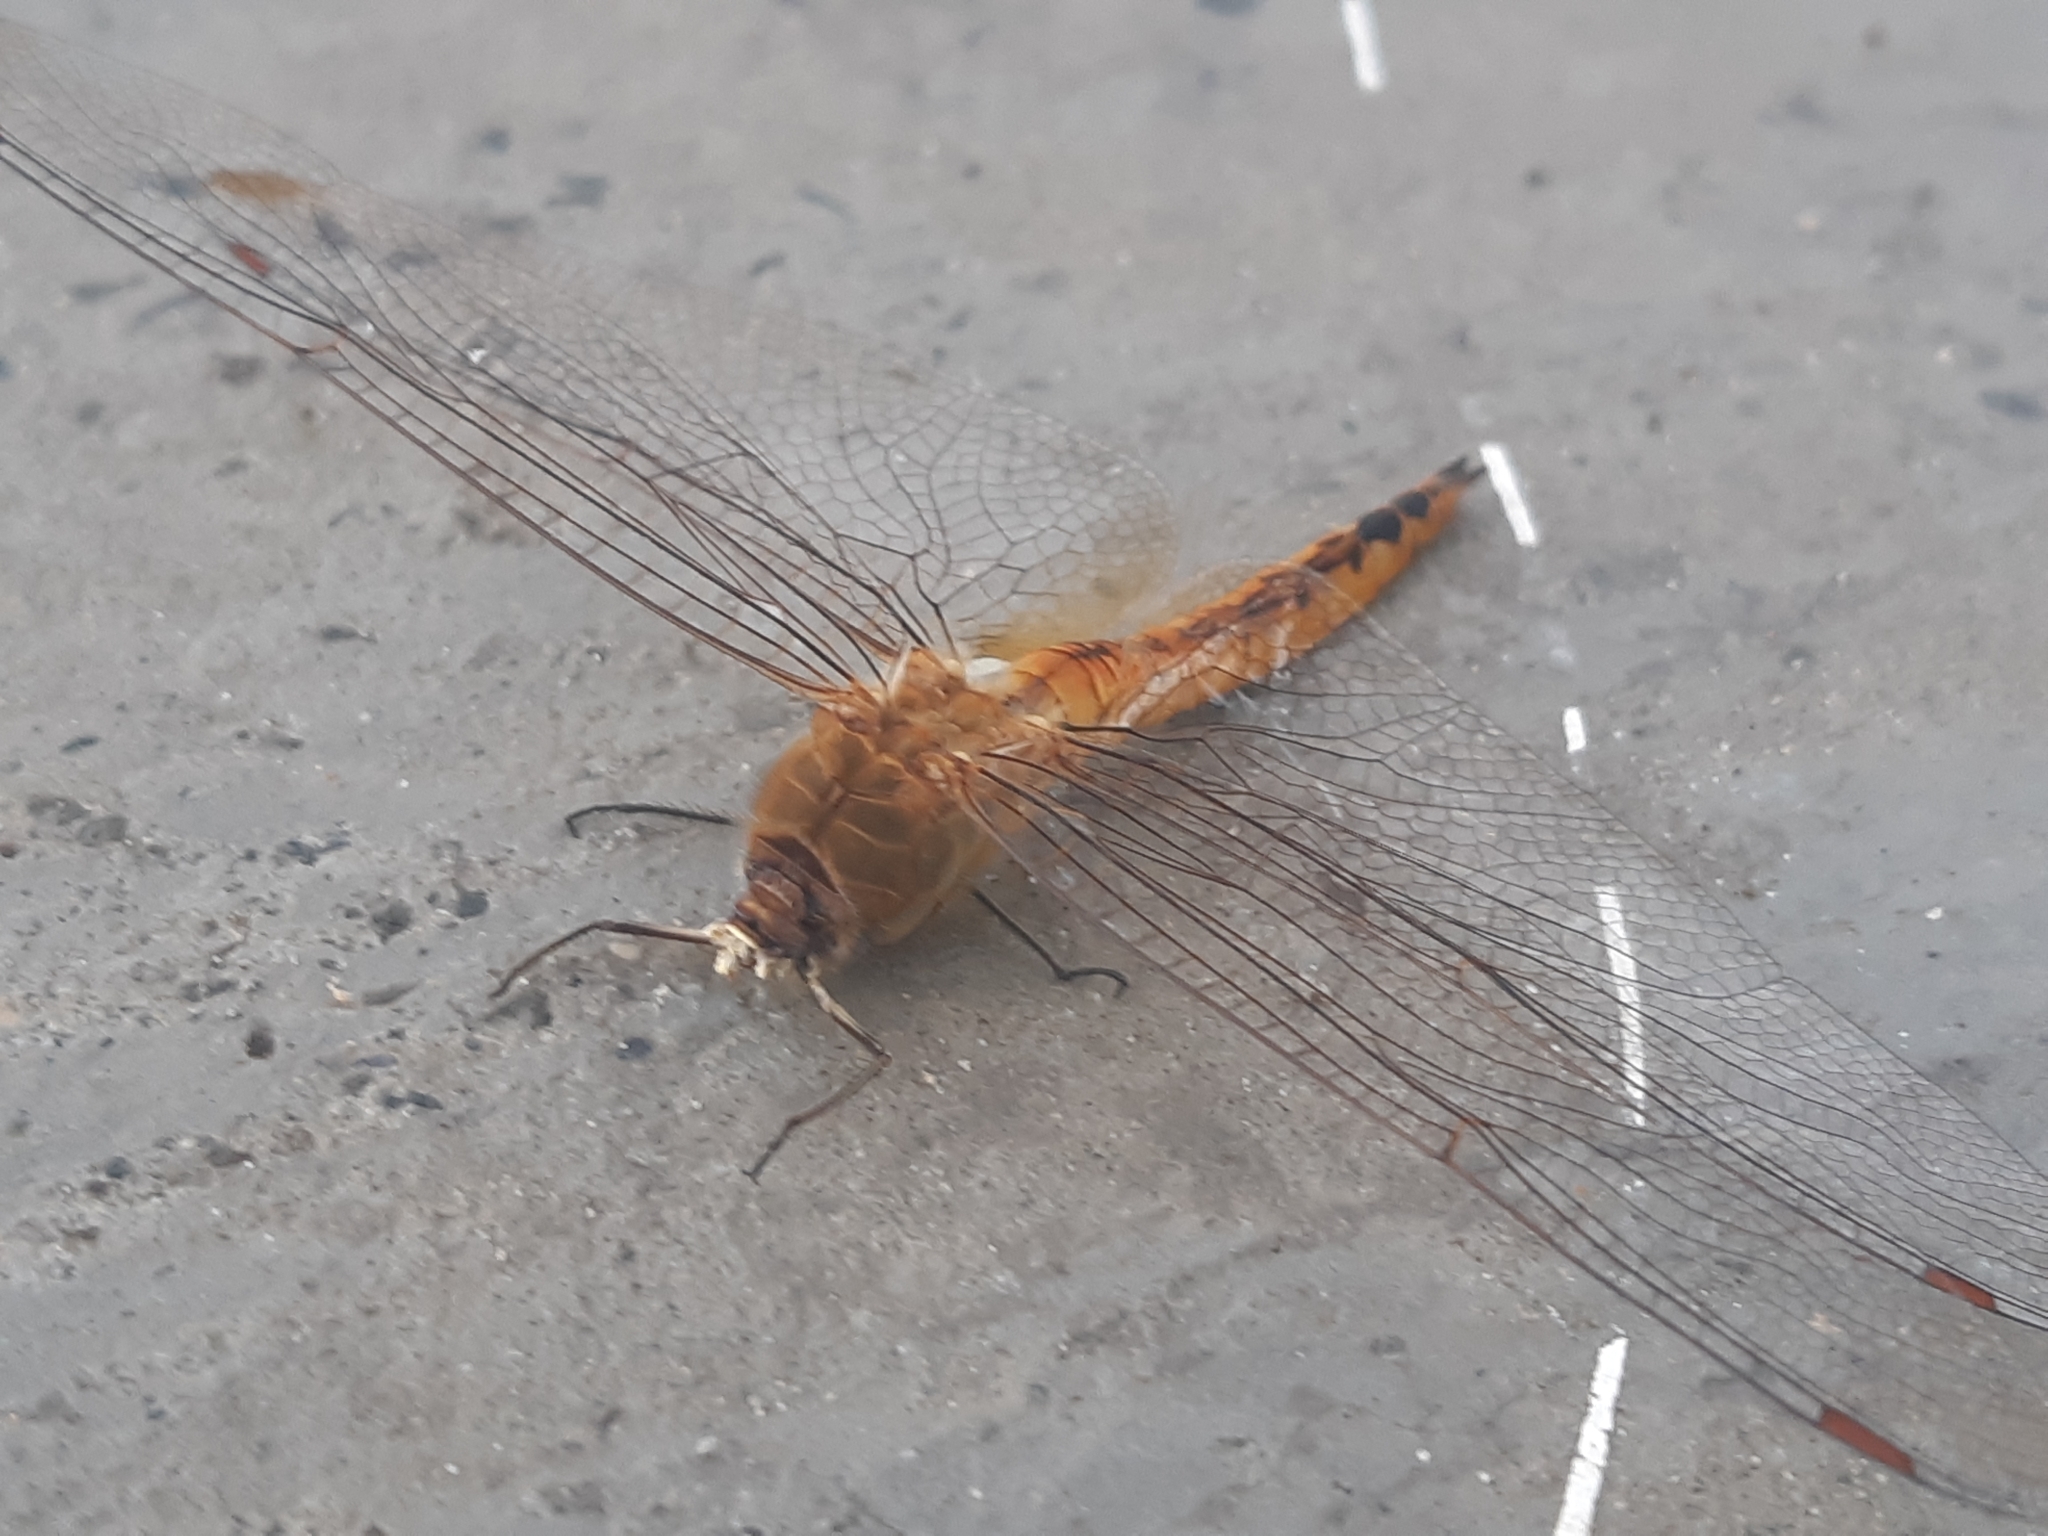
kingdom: Animalia
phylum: Arthropoda
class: Insecta
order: Odonata
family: Libellulidae
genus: Pantala
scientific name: Pantala flavescens
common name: Wandering glider
